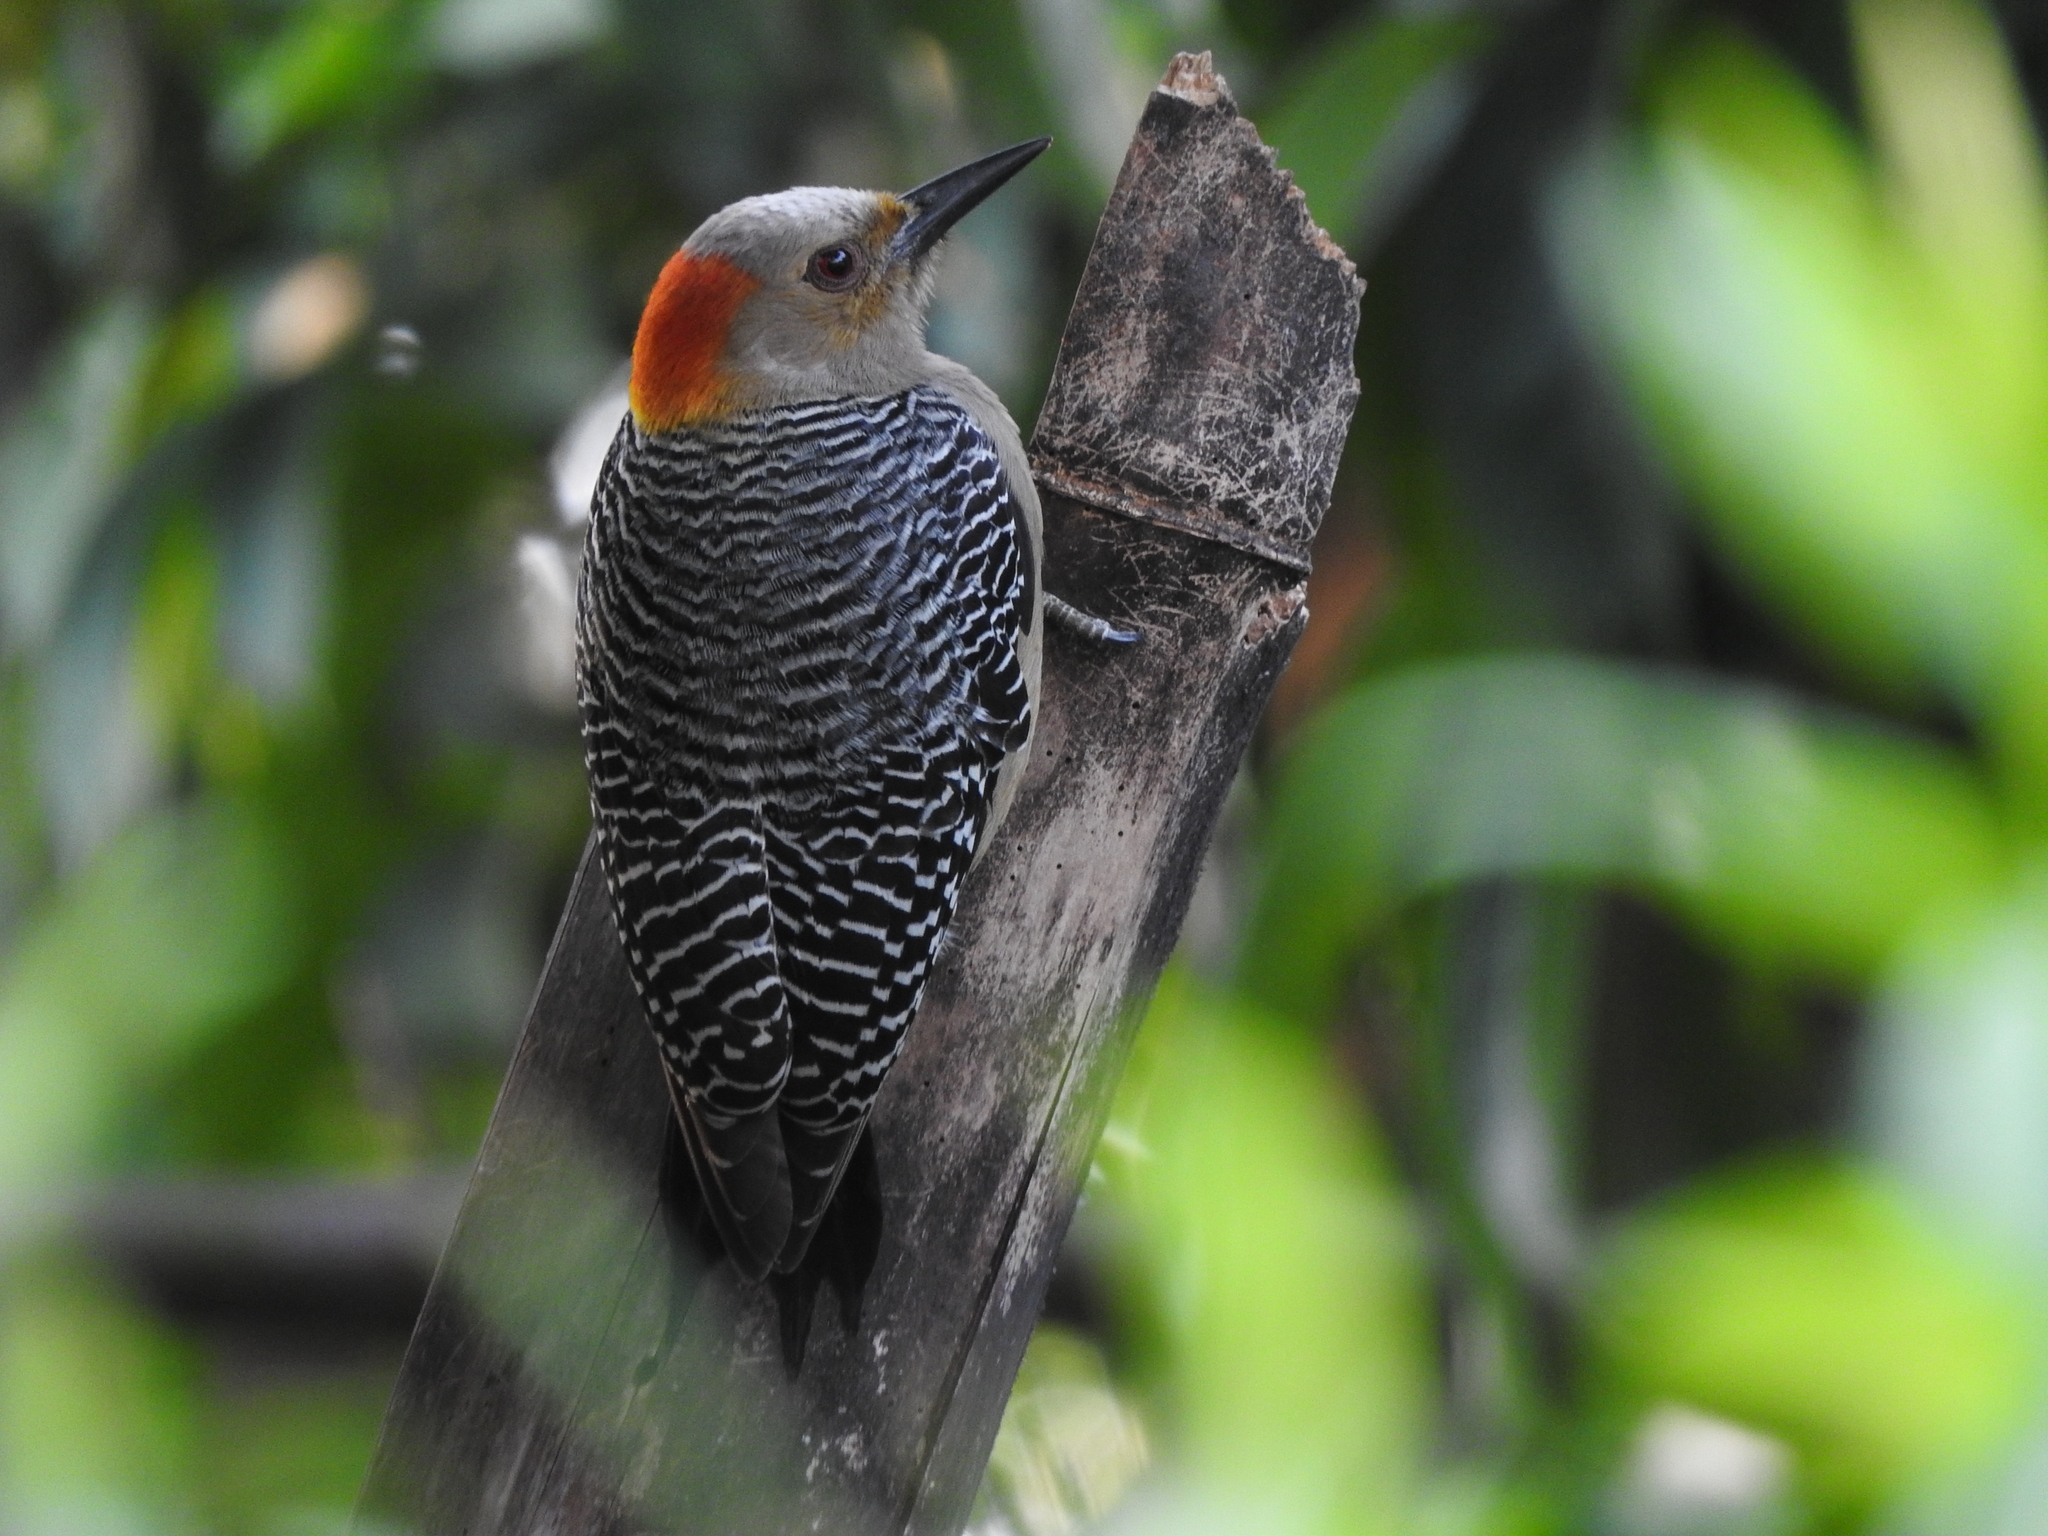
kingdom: Animalia
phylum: Chordata
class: Aves
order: Piciformes
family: Picidae
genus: Melanerpes
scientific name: Melanerpes aurifrons
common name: Golden-fronted woodpecker
